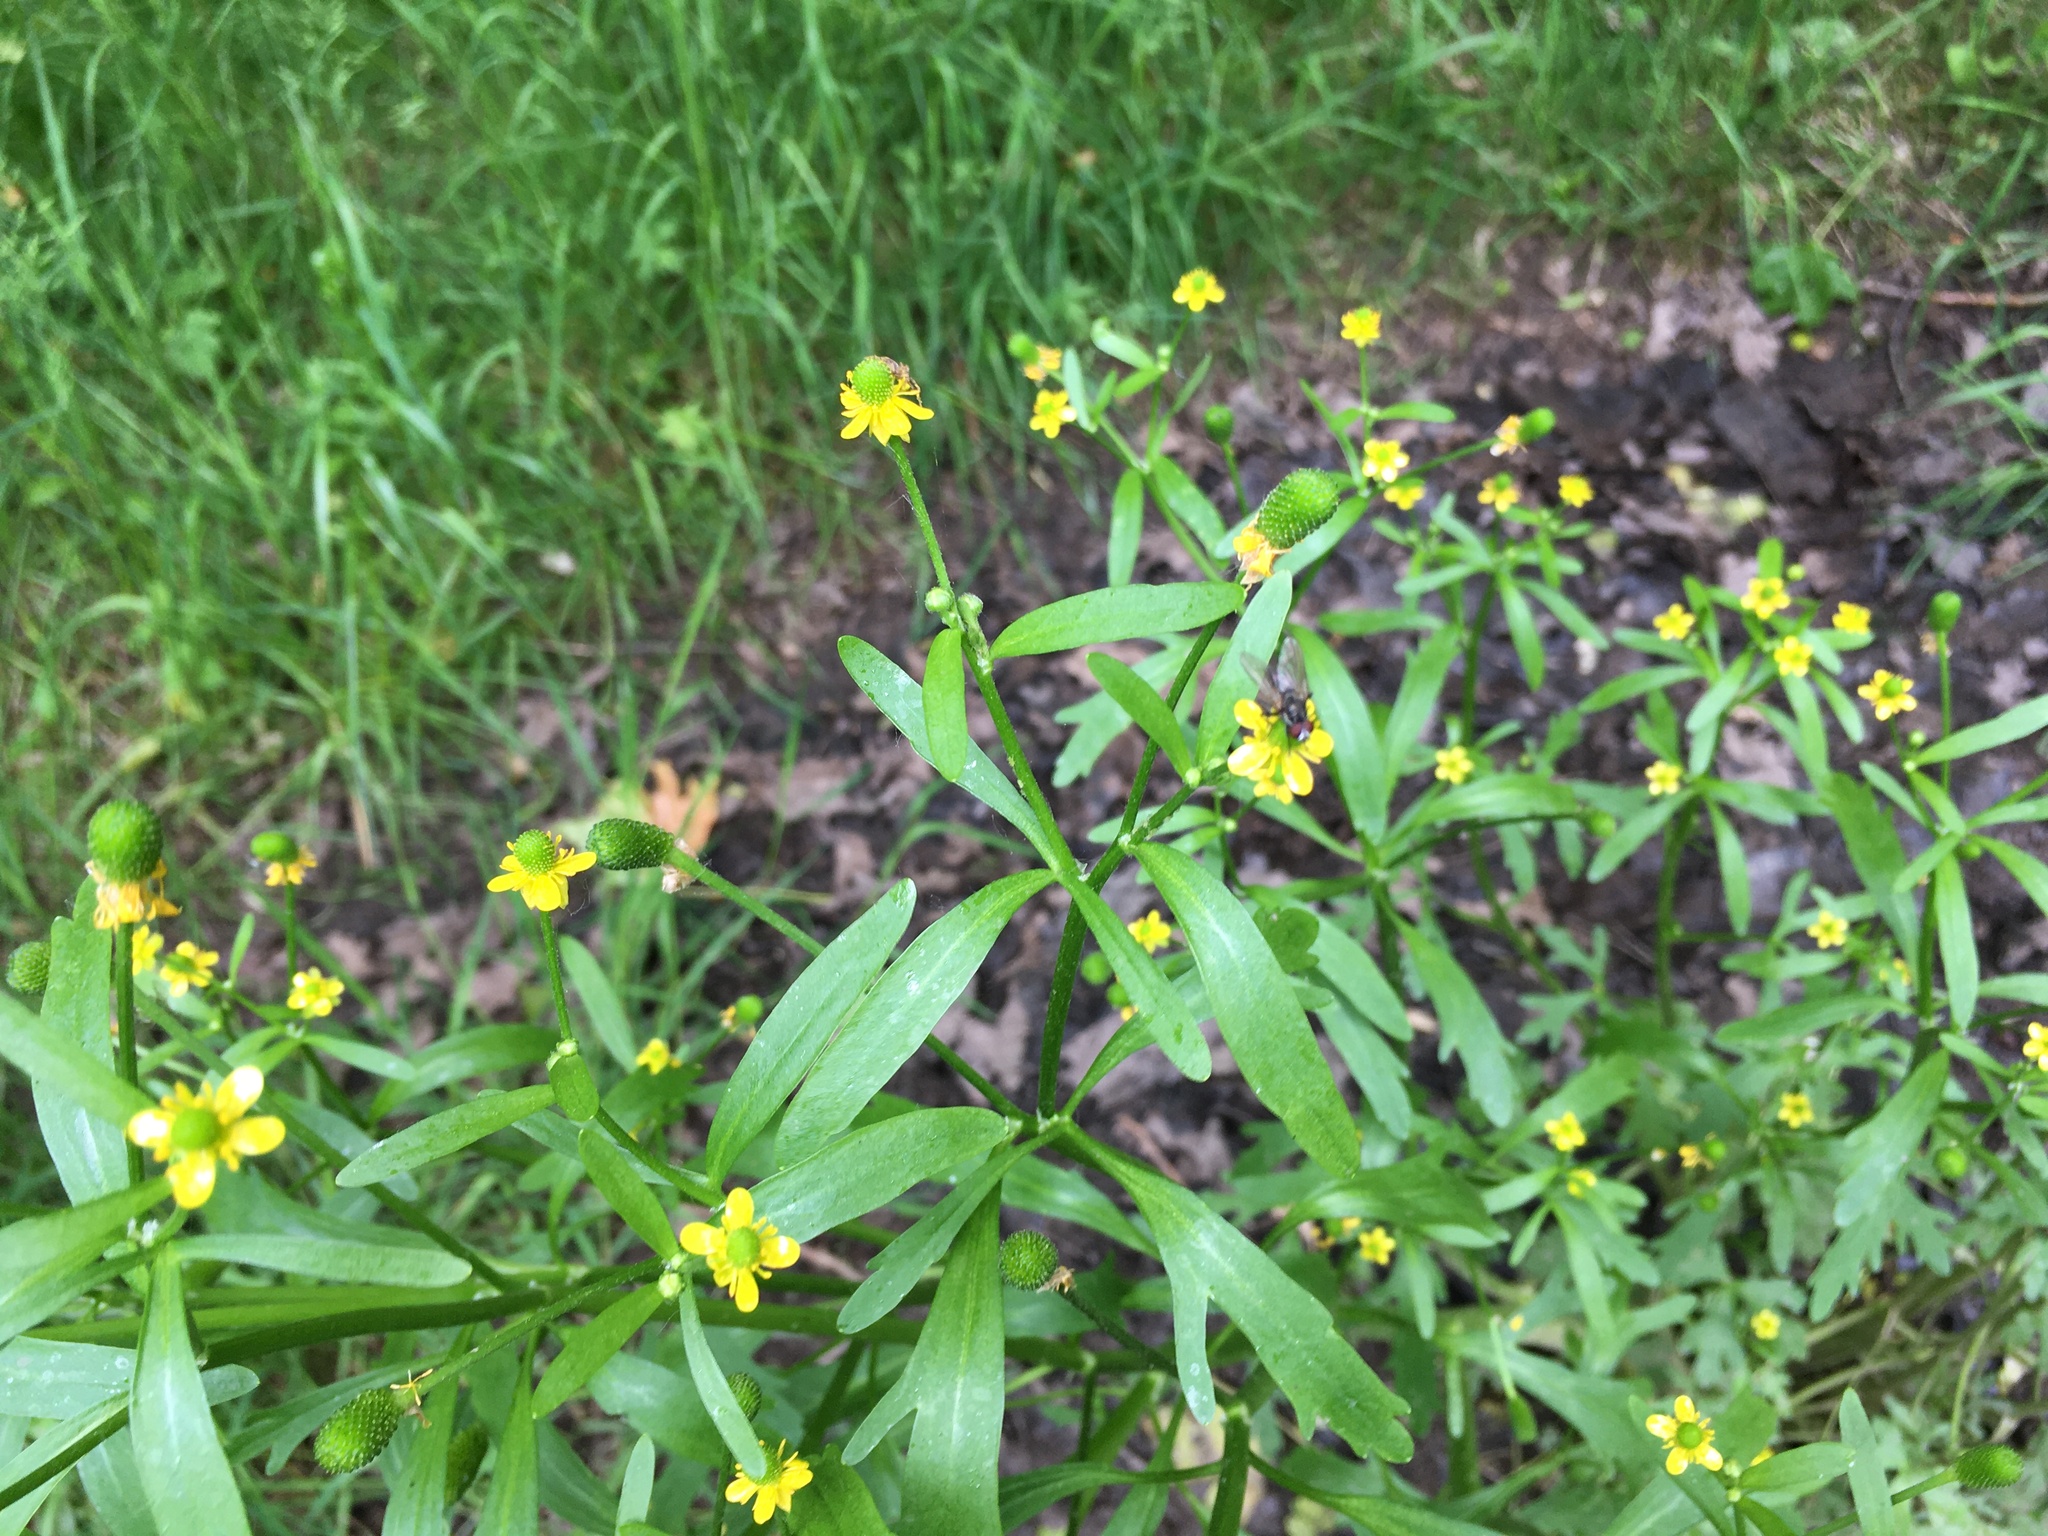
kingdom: Plantae
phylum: Tracheophyta
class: Magnoliopsida
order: Ranunculales
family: Ranunculaceae
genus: Ranunculus
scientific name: Ranunculus sceleratus
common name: Celery-leaved buttercup
